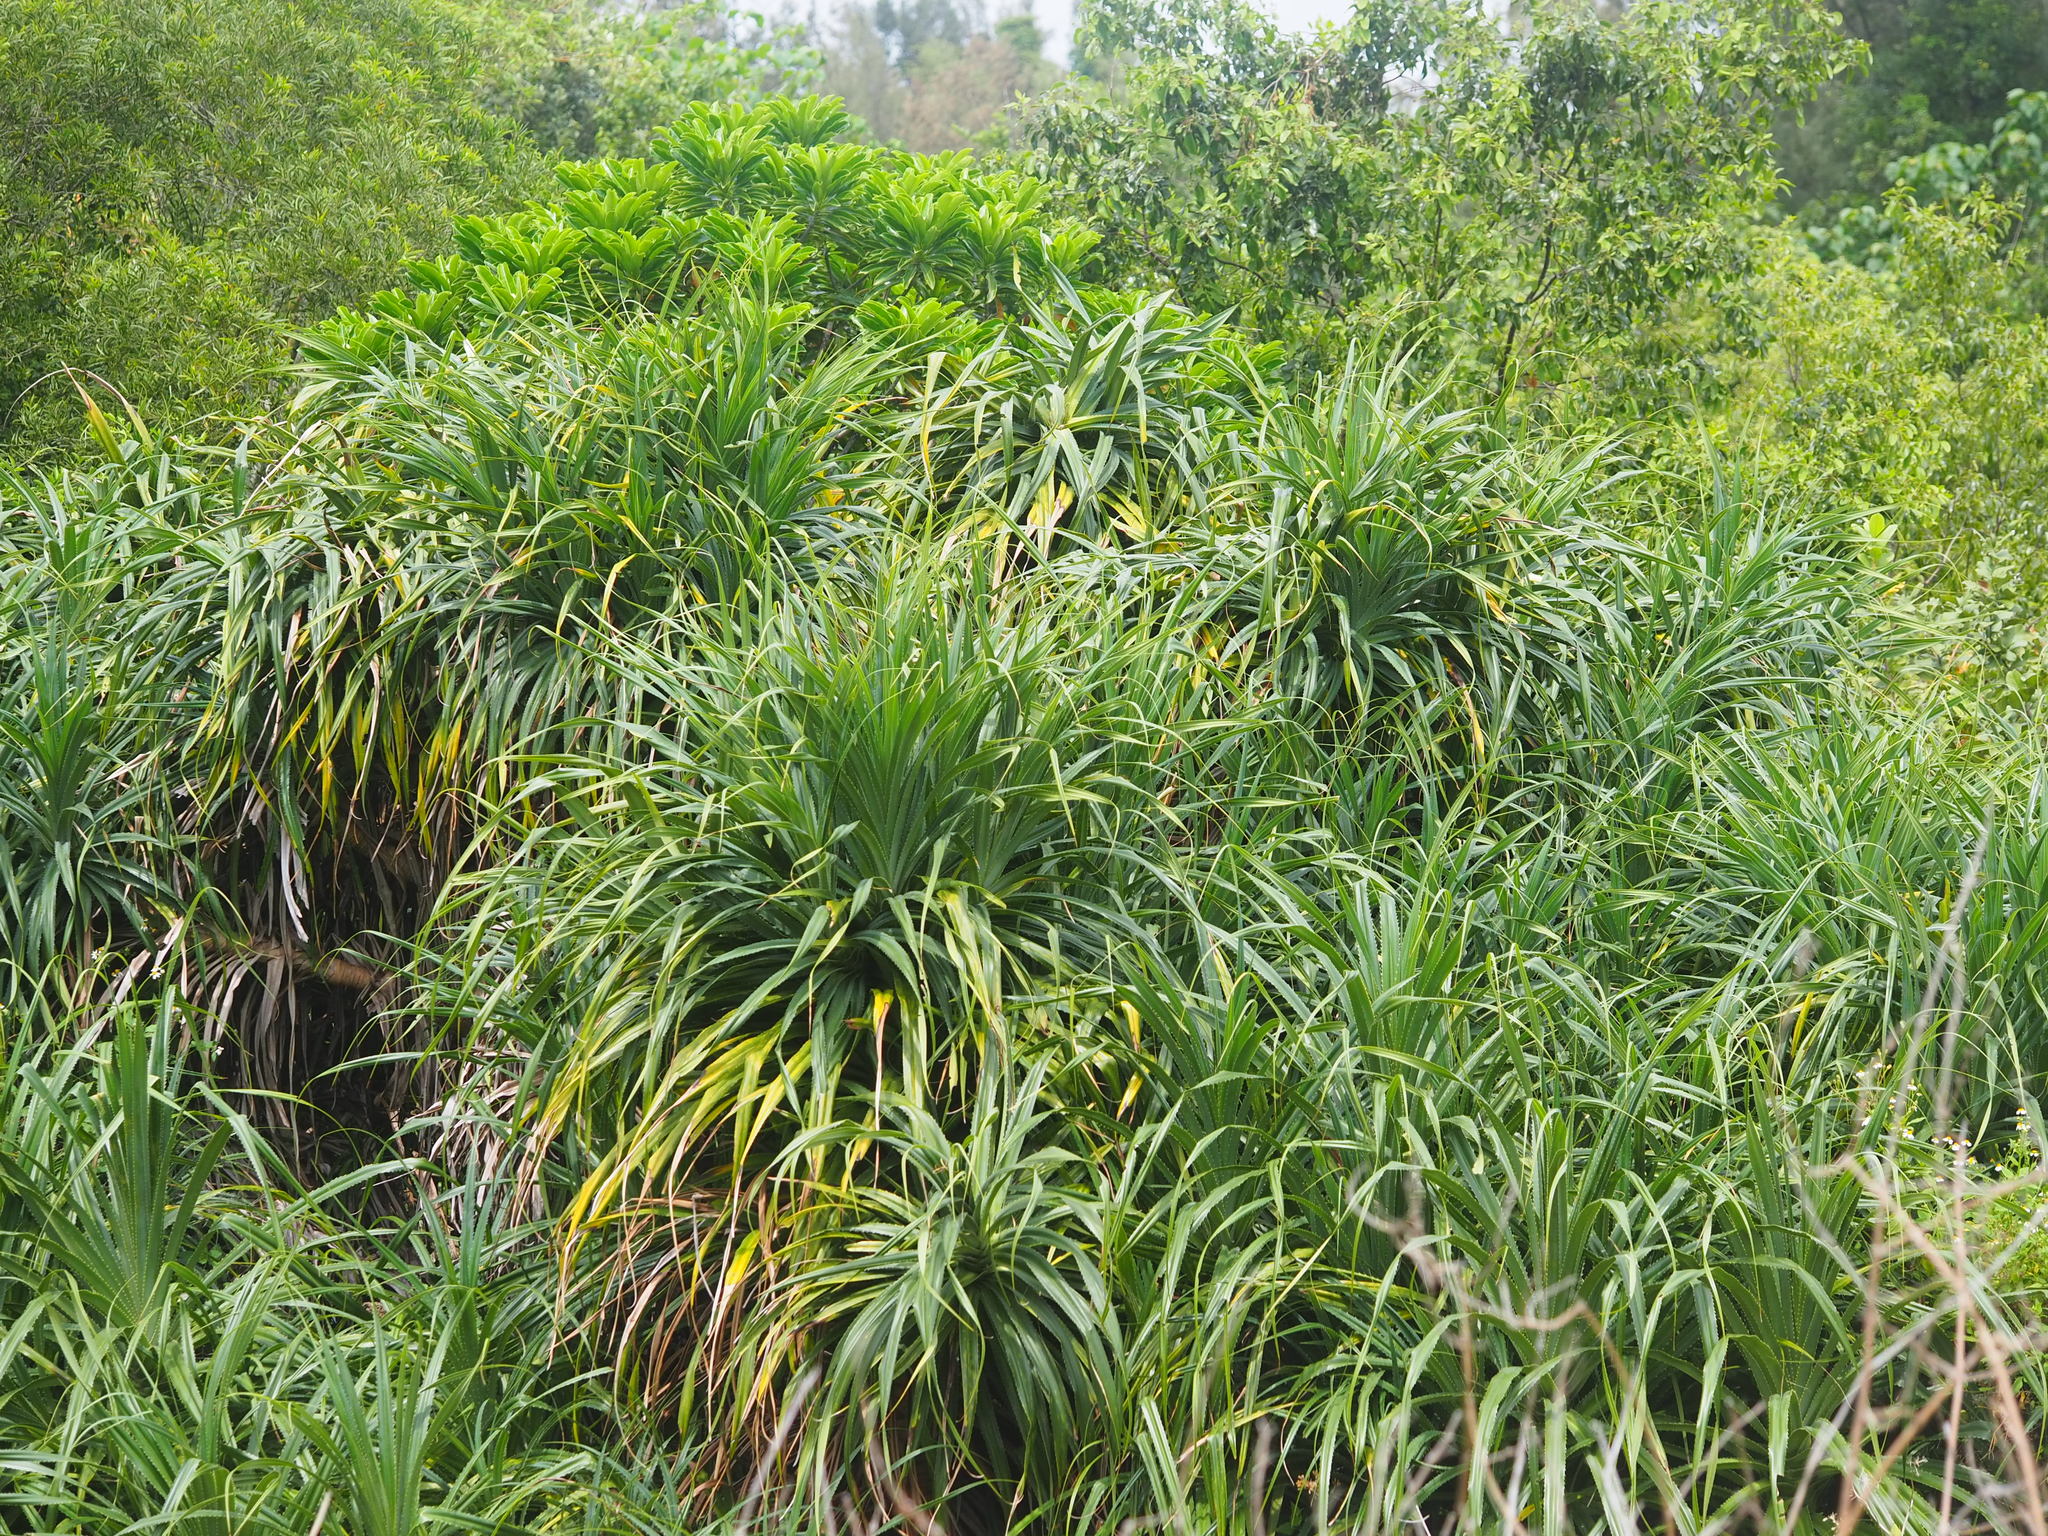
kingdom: Plantae
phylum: Tracheophyta
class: Liliopsida
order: Pandanales
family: Pandanaceae
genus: Pandanus
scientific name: Pandanus odorifer
